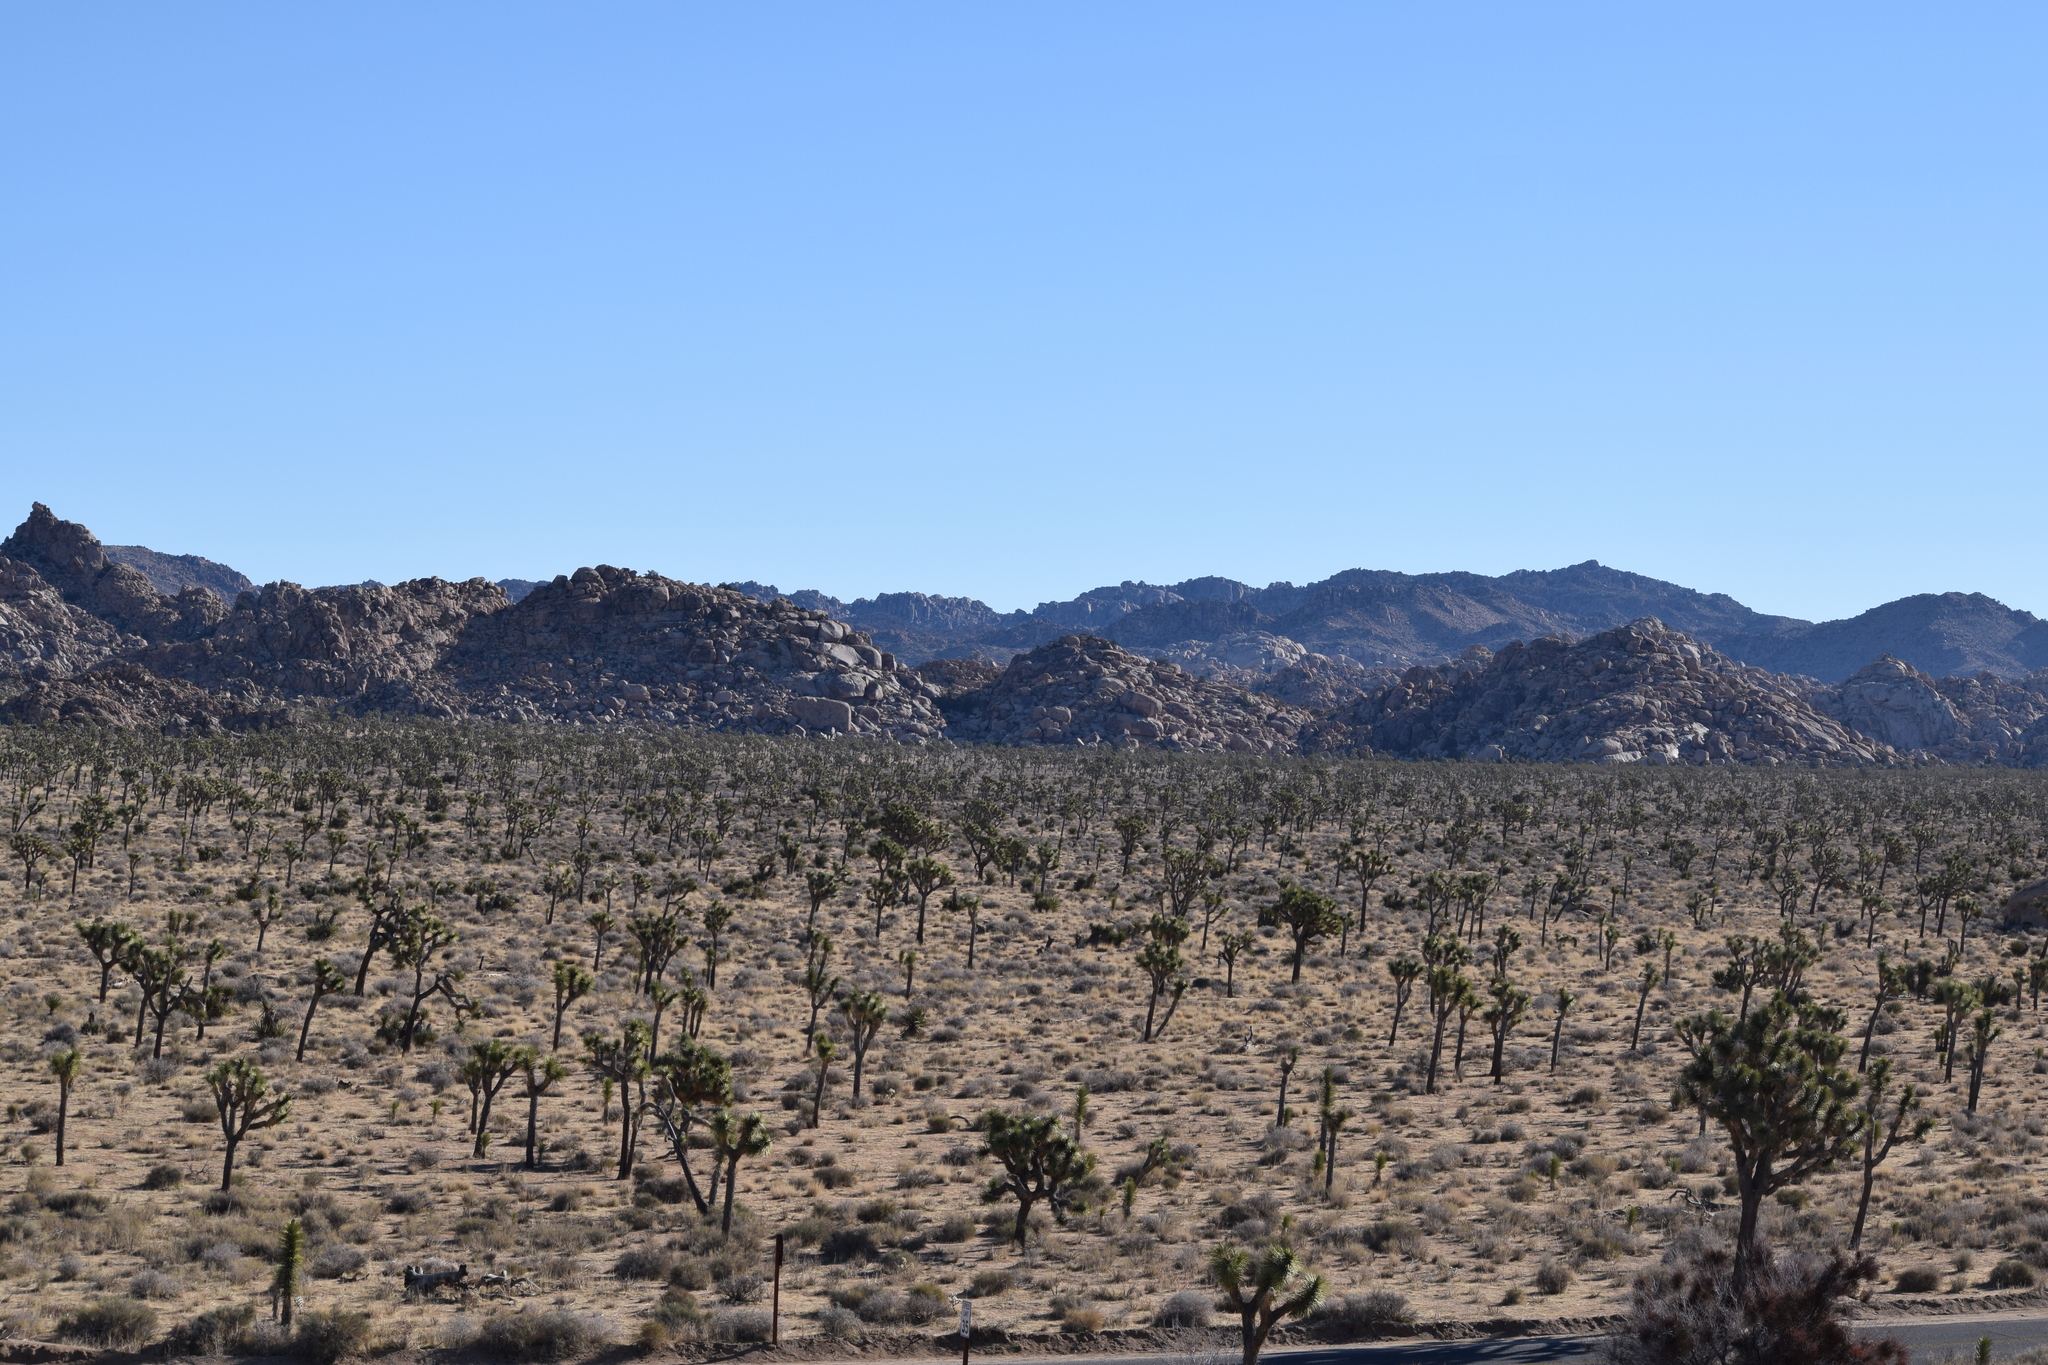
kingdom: Plantae
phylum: Tracheophyta
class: Liliopsida
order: Asparagales
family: Asparagaceae
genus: Yucca
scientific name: Yucca brevifolia
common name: Joshua tree
